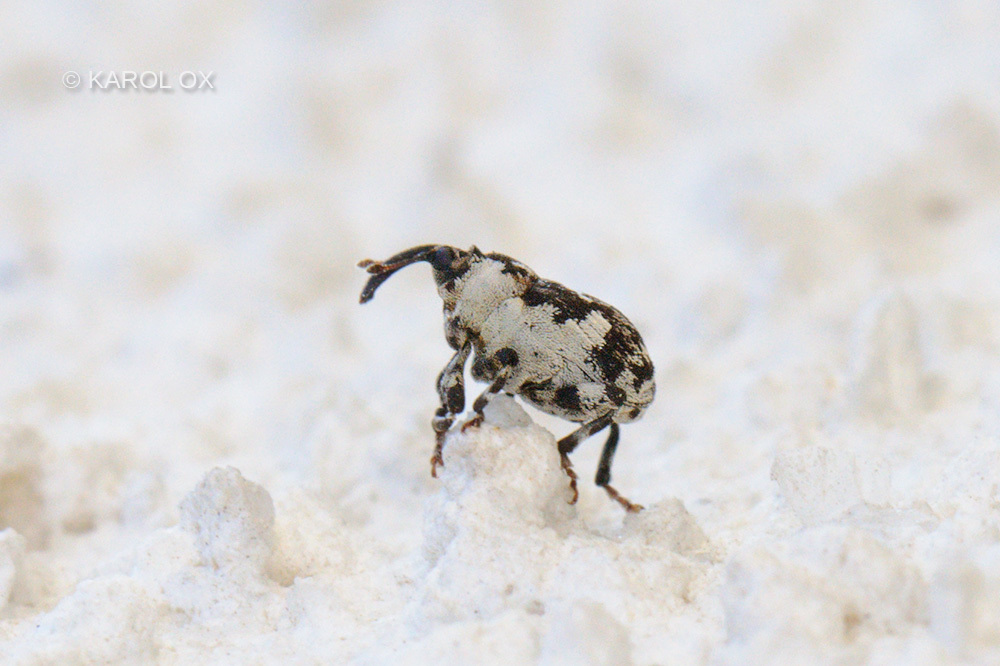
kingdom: Animalia
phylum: Arthropoda
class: Insecta
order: Coleoptera
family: Curculionidae
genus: Hadroplontus
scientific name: Hadroplontus trimaculatus
